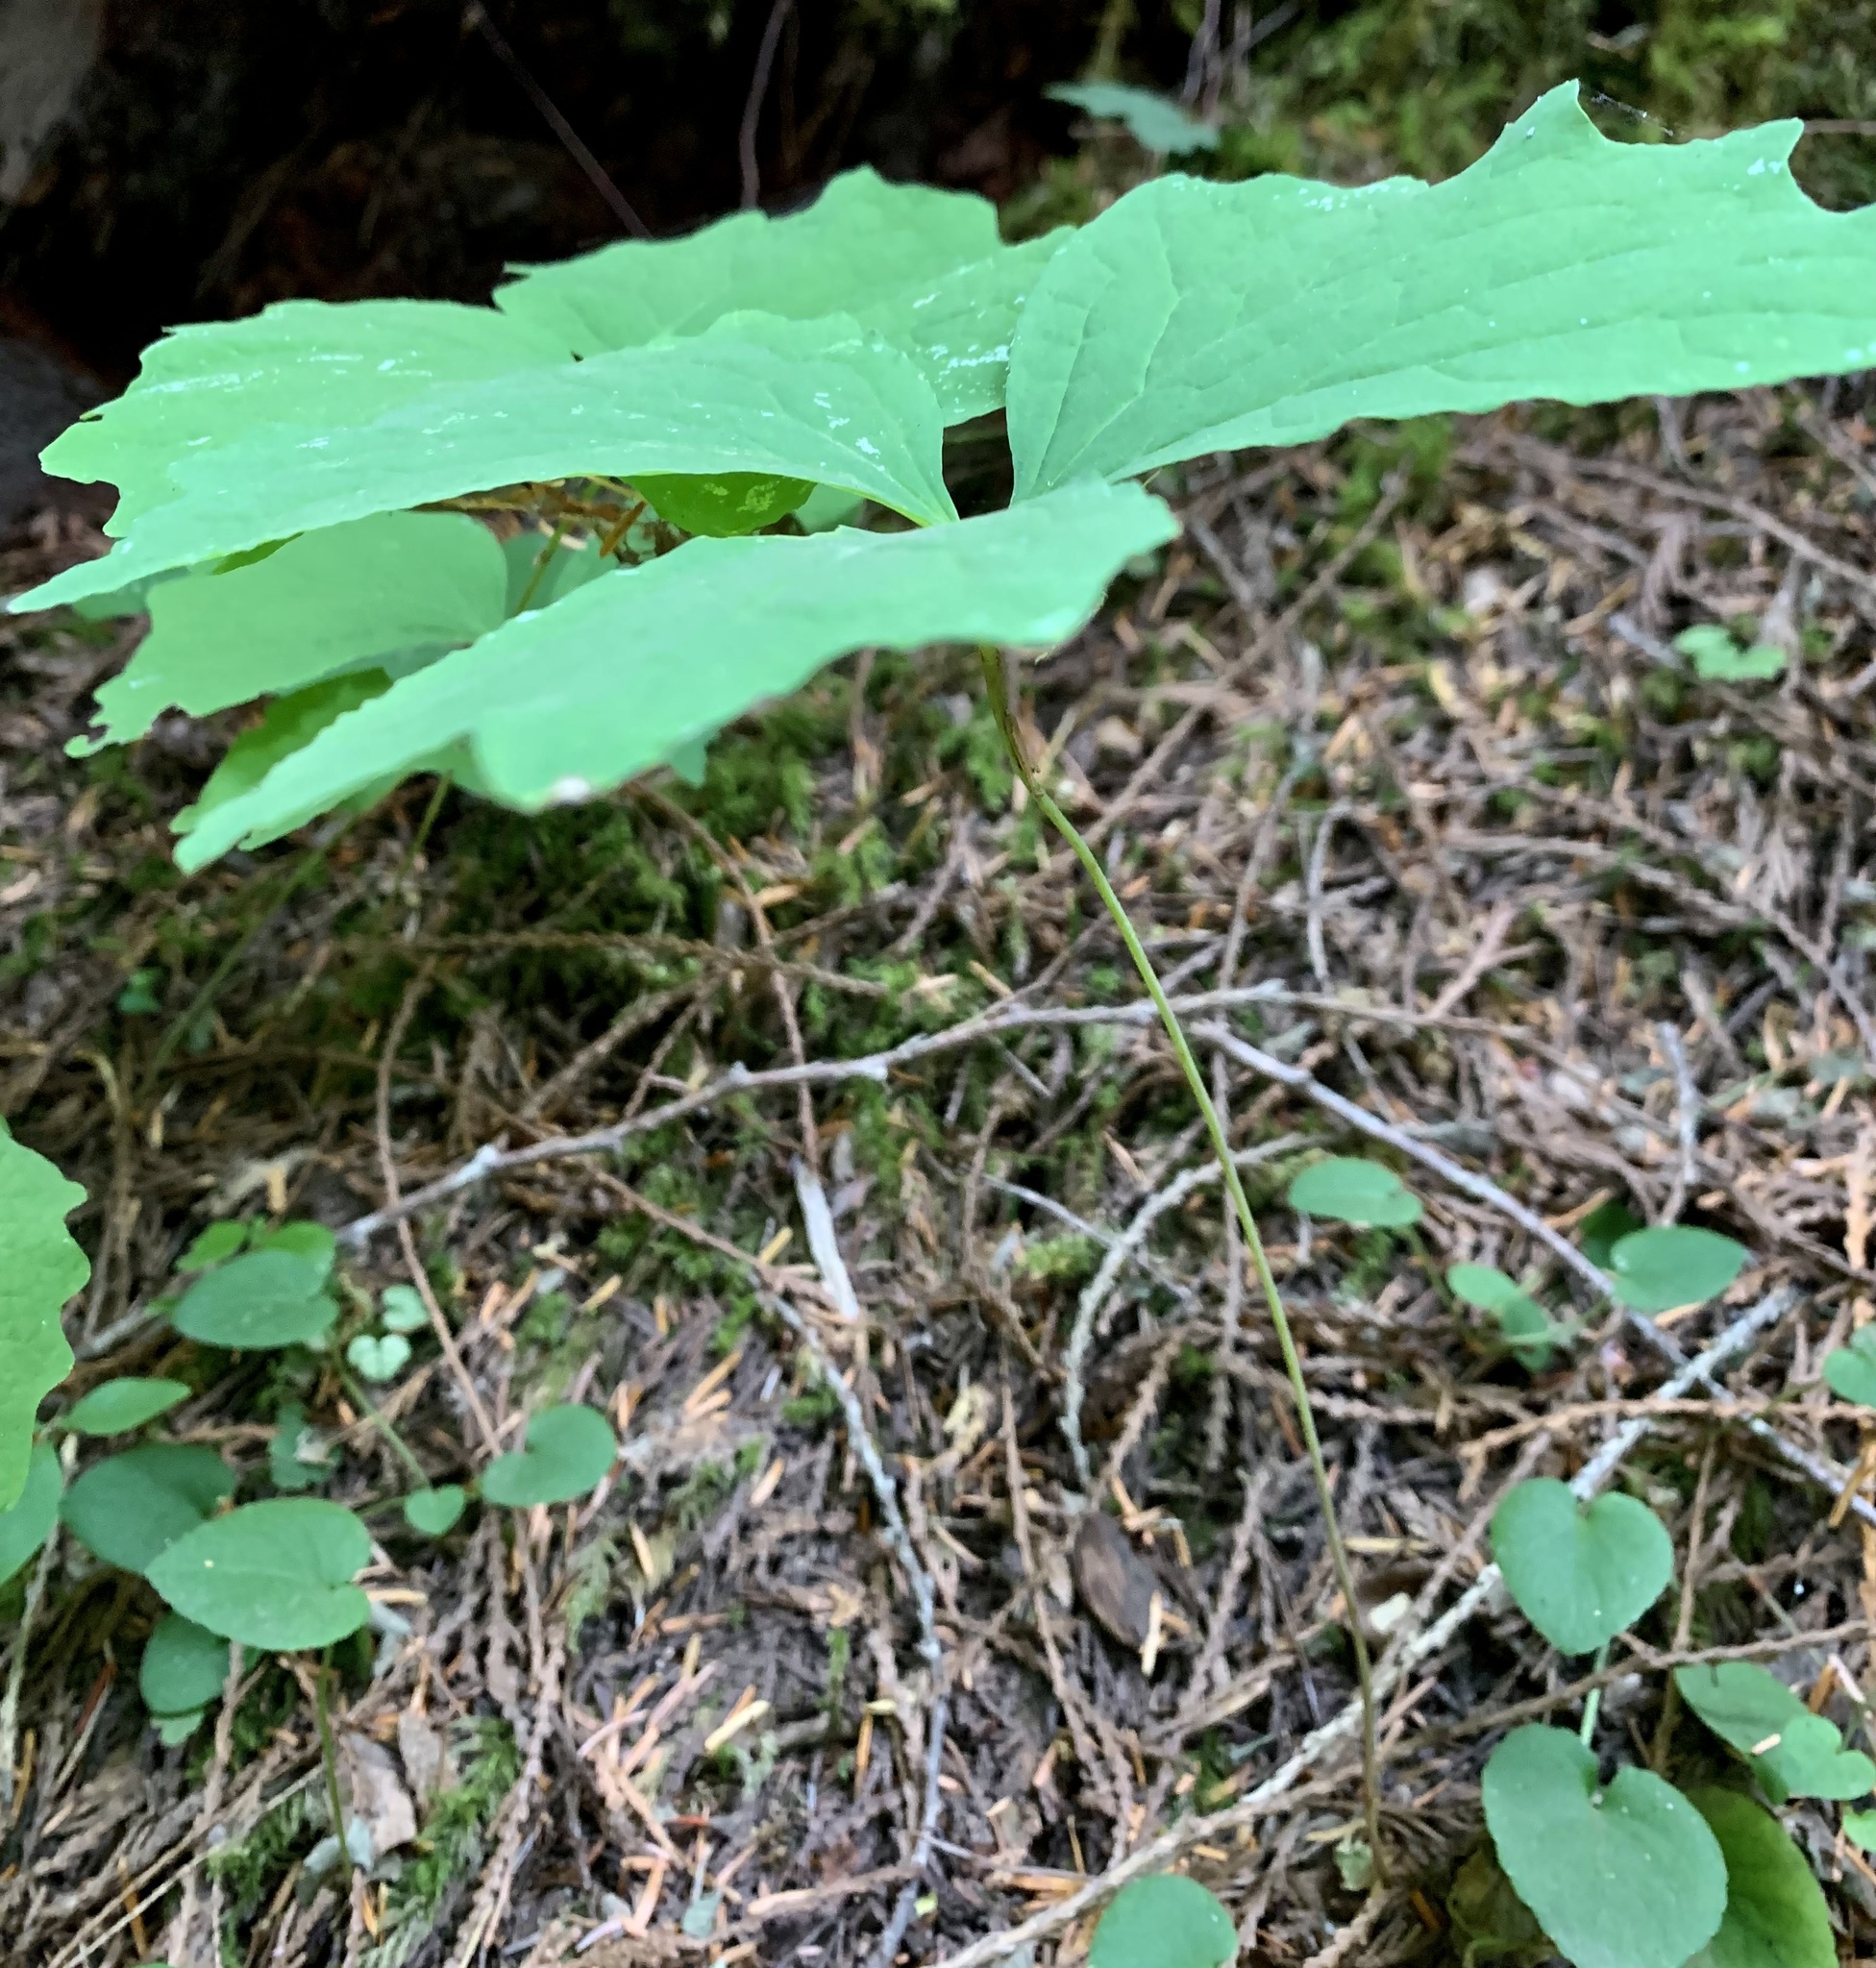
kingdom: Plantae
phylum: Tracheophyta
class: Magnoliopsida
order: Ranunculales
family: Berberidaceae
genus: Achlys
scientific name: Achlys triphylla
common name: Vanilla-leaf
